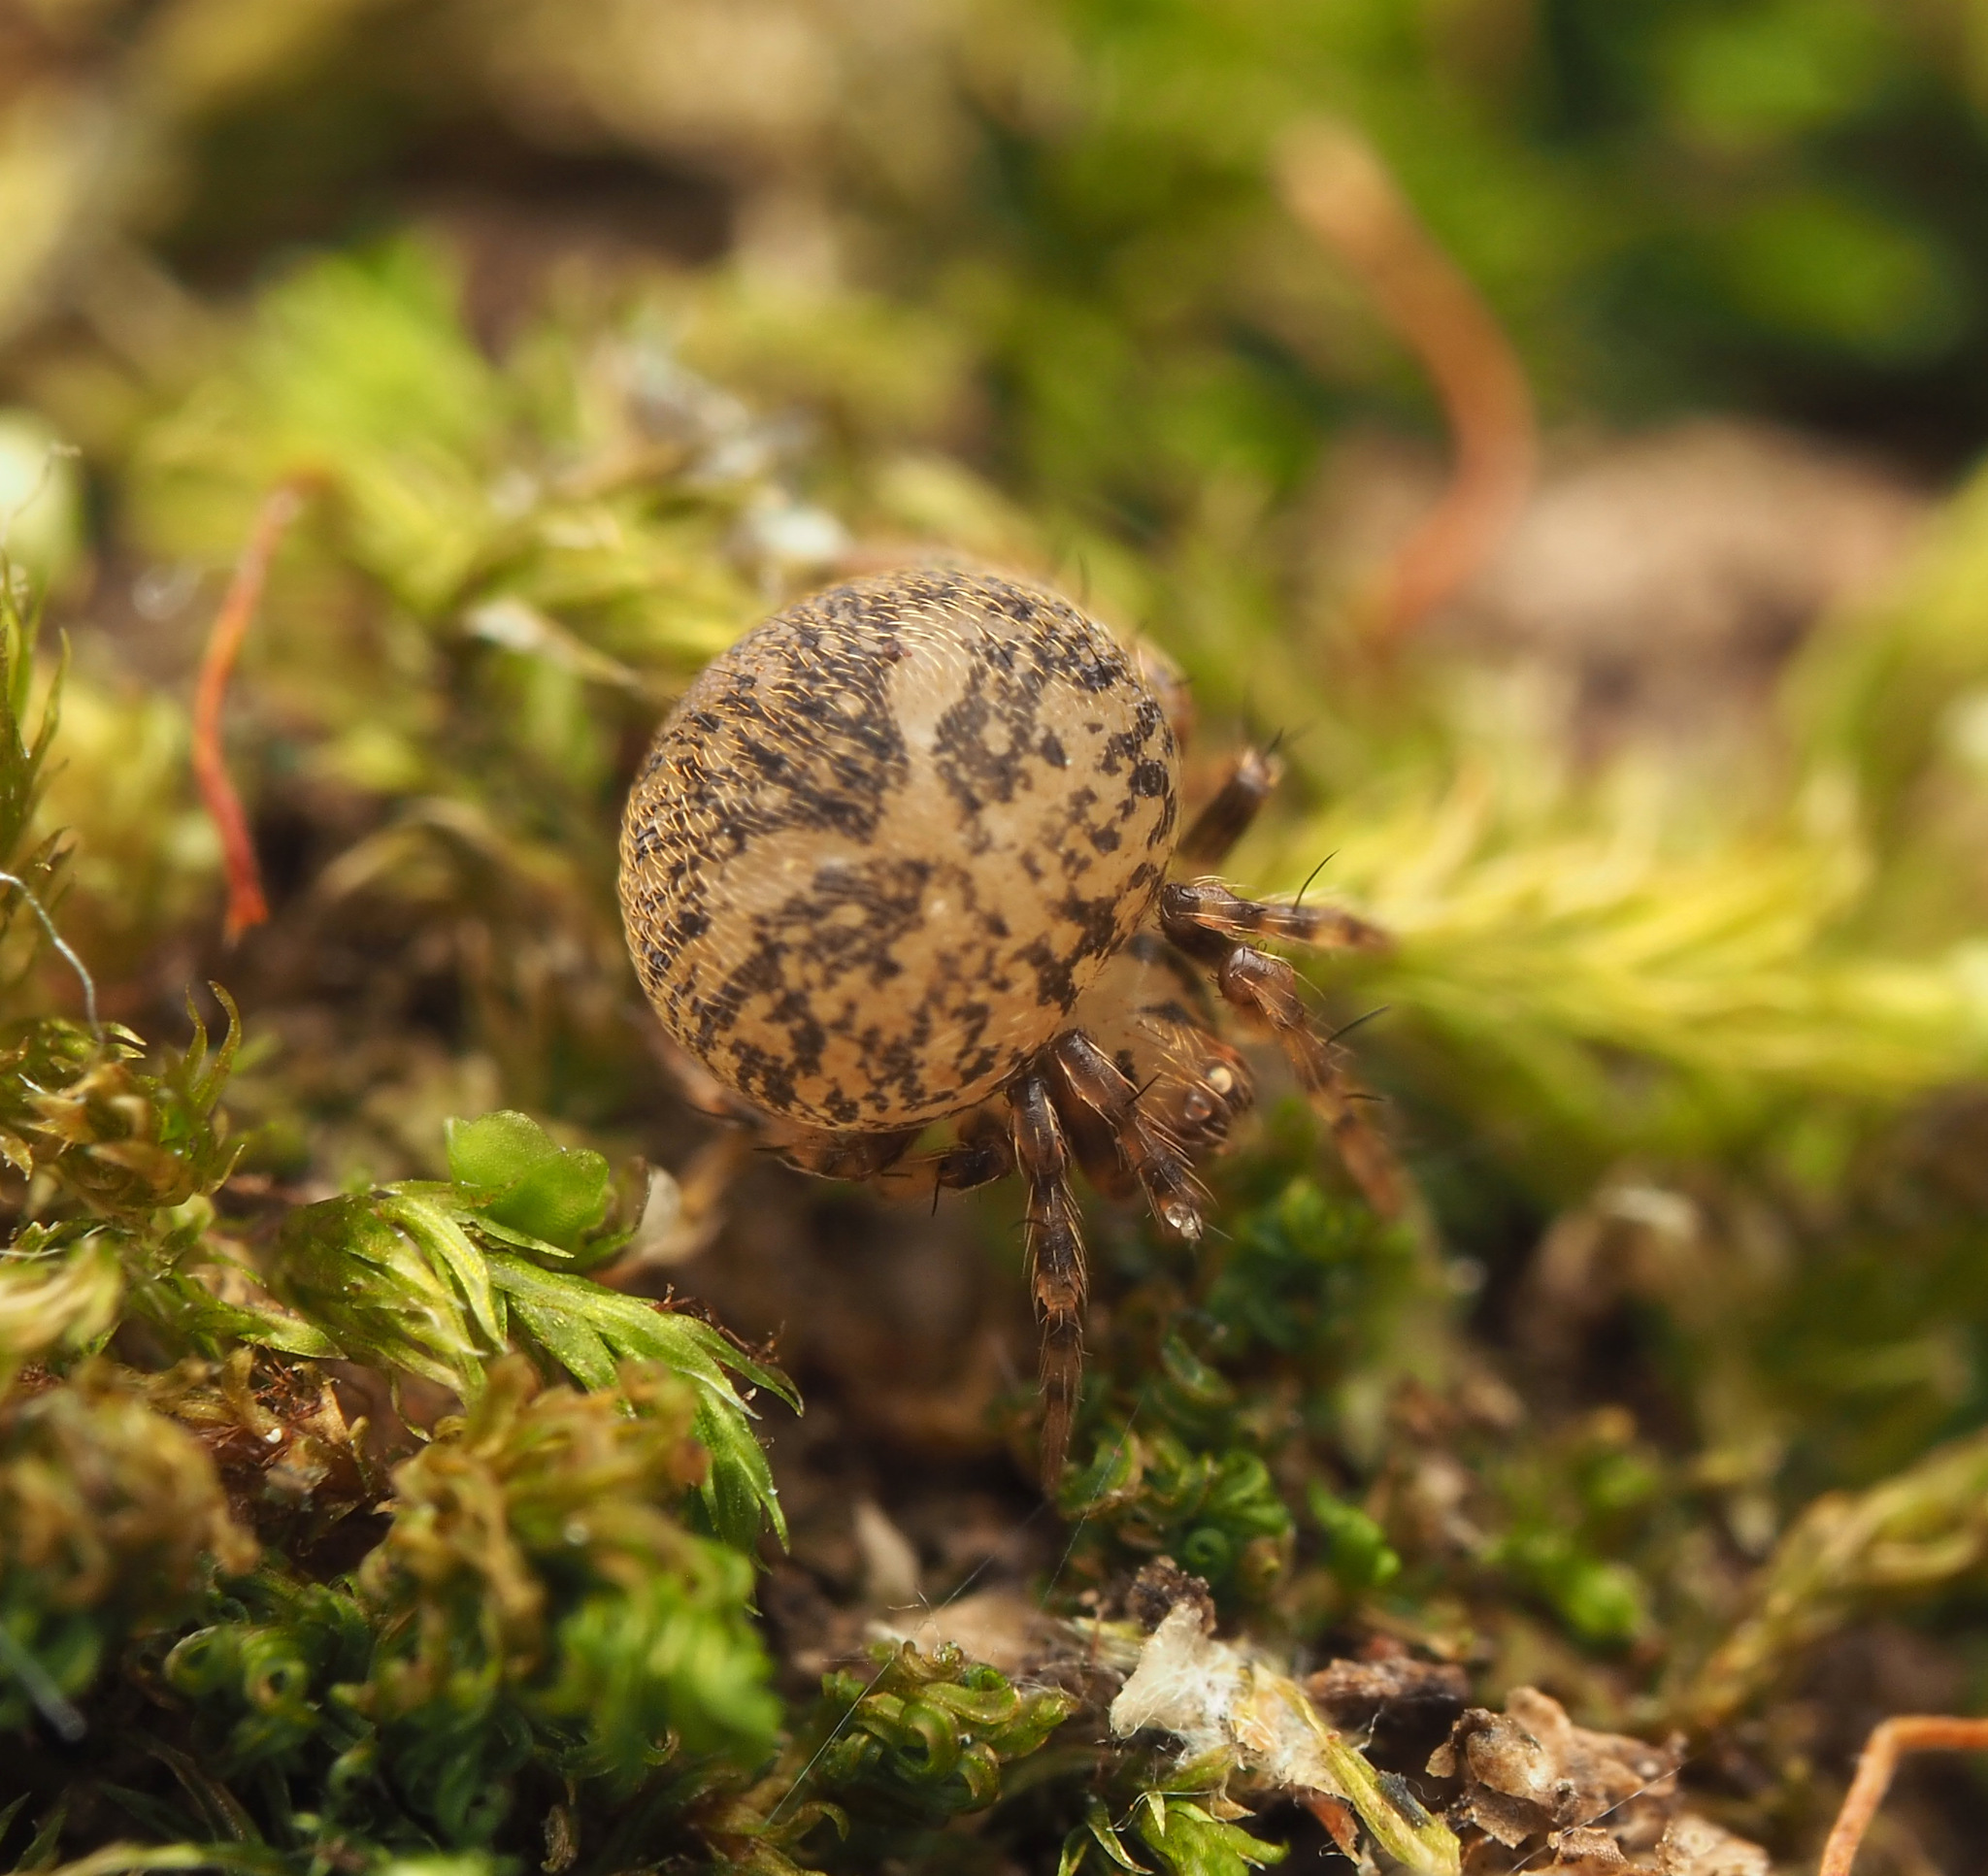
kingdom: Animalia
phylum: Arthropoda
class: Arachnida
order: Araneae
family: Theridiidae
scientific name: Theridiidae
